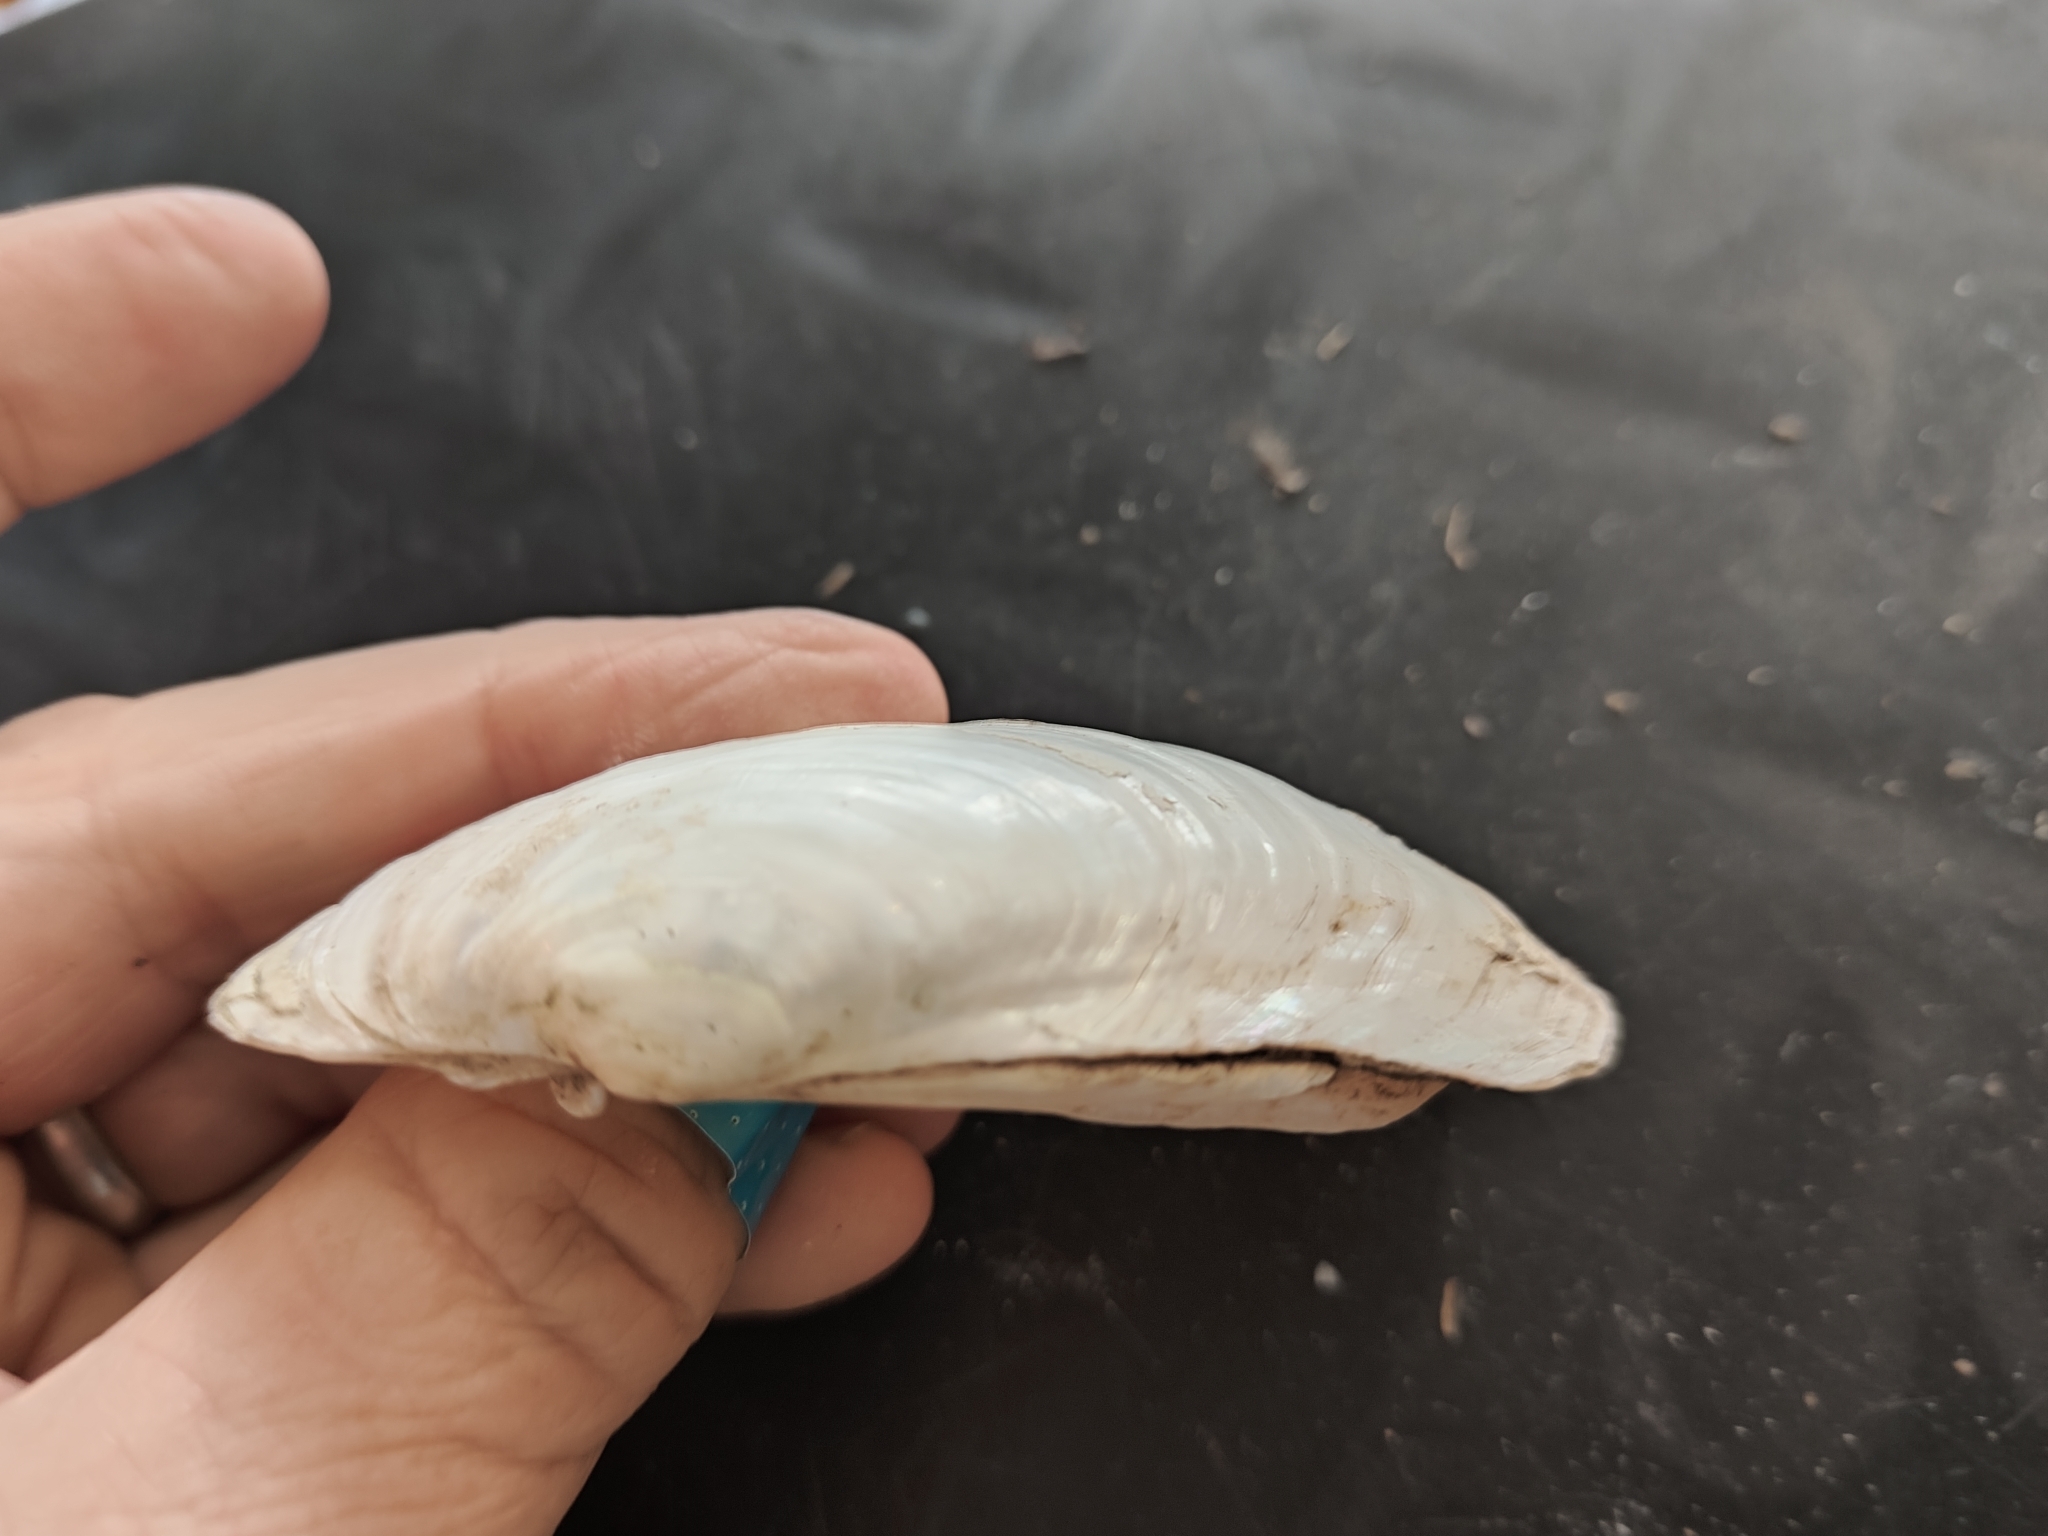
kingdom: Animalia
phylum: Mollusca
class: Bivalvia
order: Unionida
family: Unionidae
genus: Lampsilis
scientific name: Lampsilis siliquoidea
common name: Fatmucket
